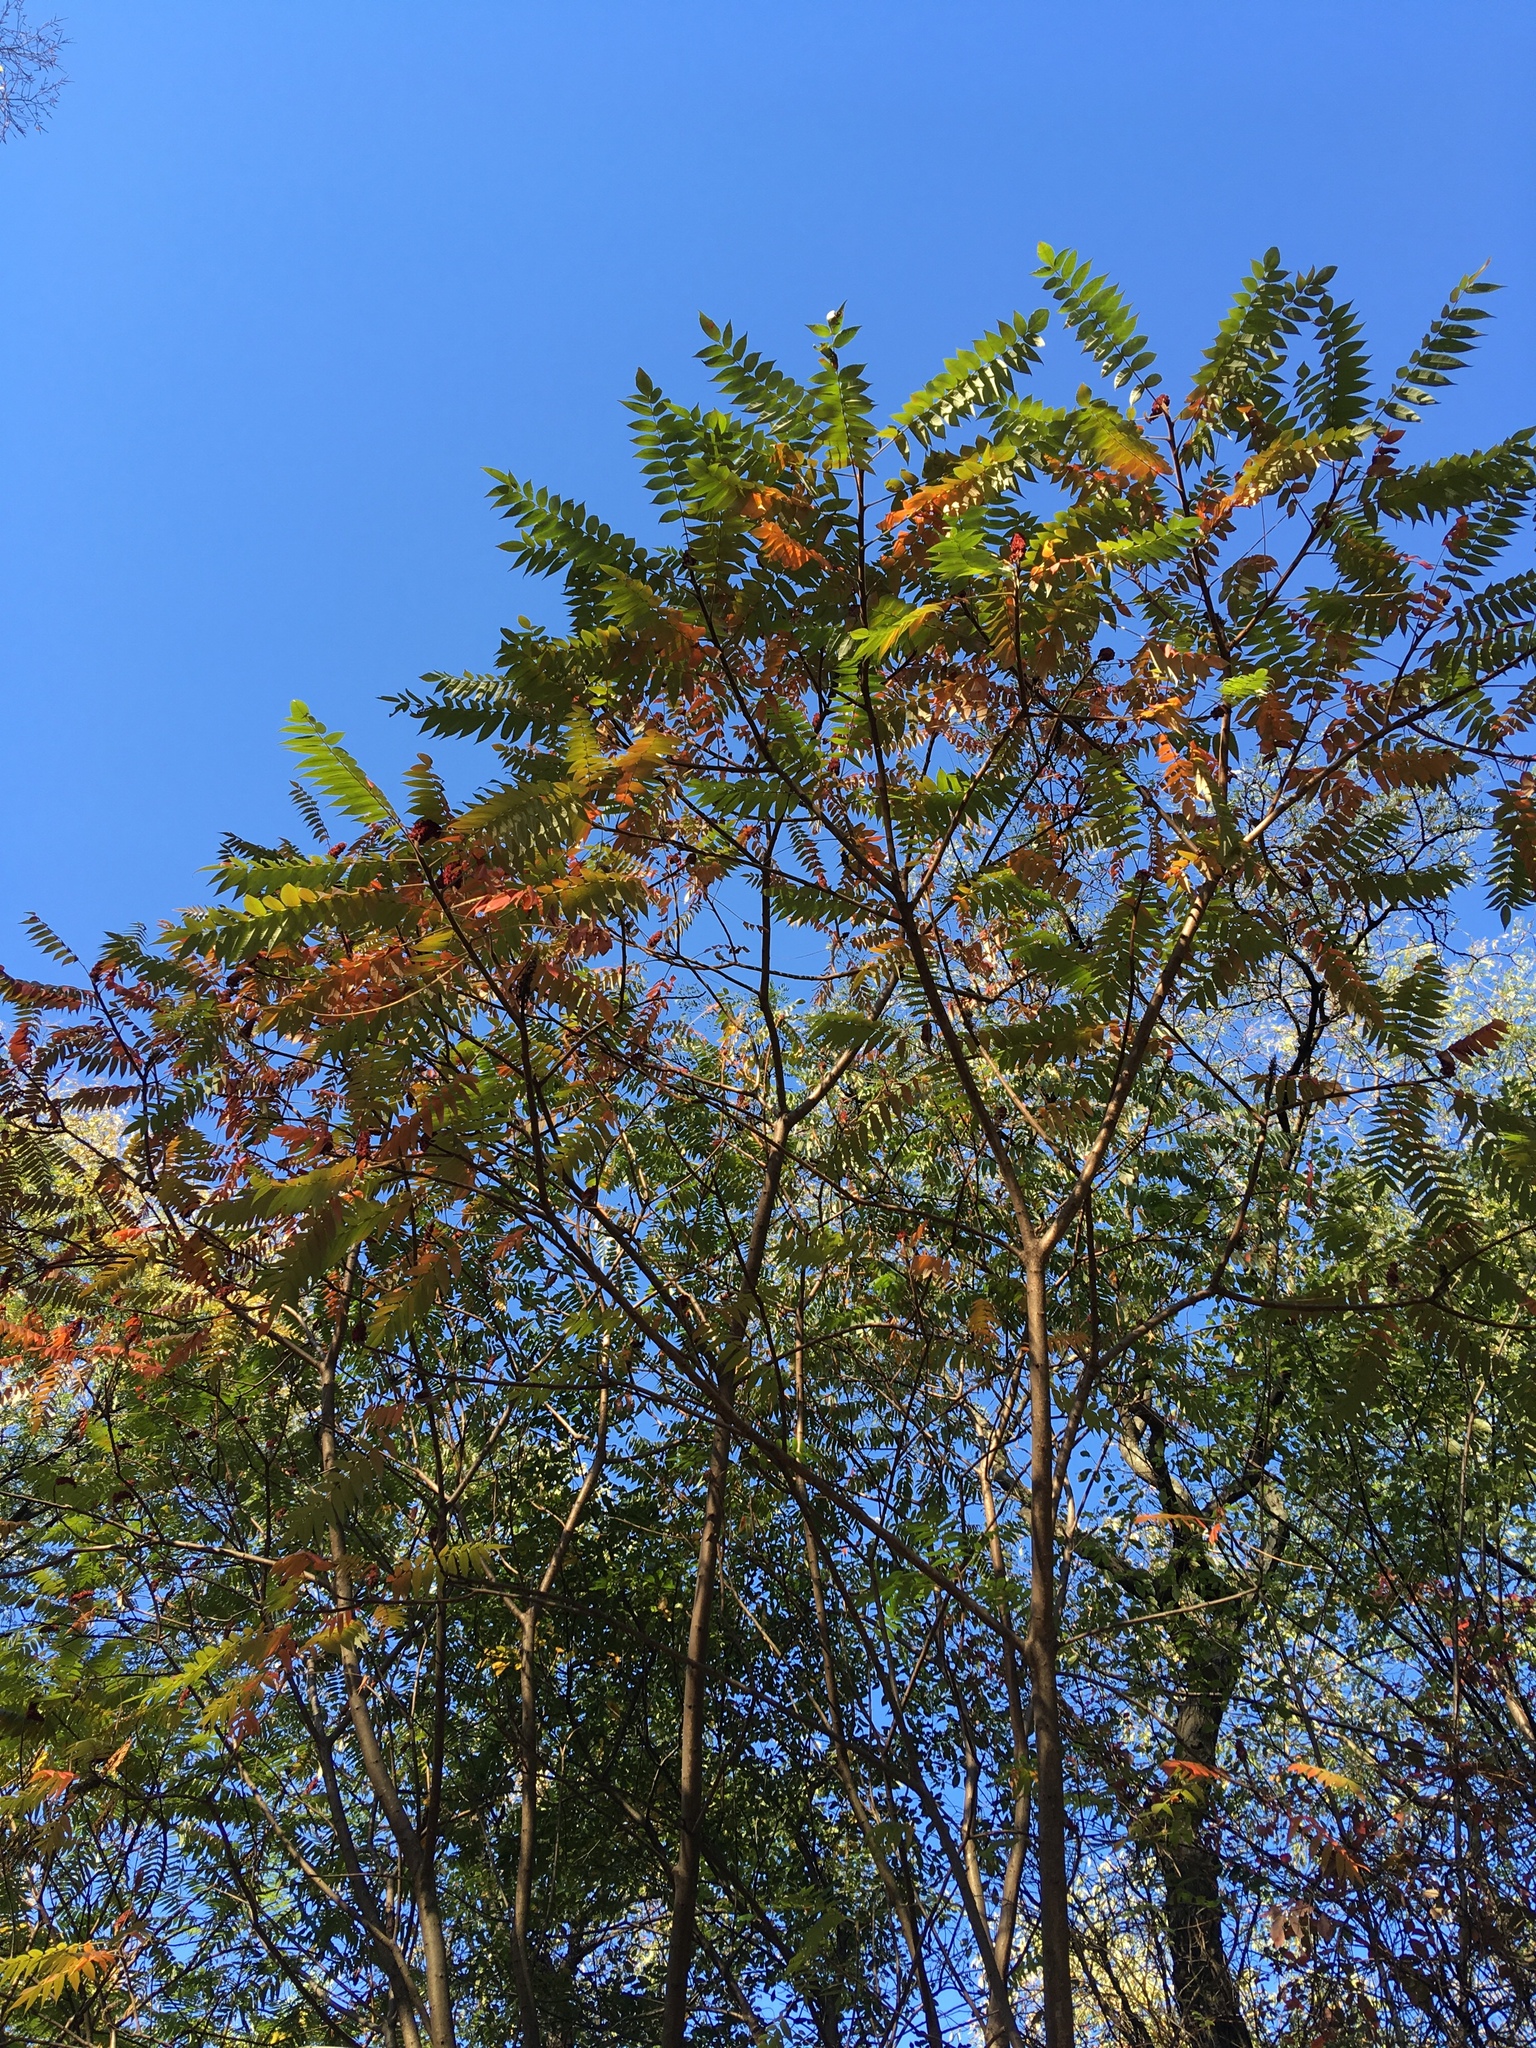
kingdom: Plantae
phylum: Tracheophyta
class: Magnoliopsida
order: Sapindales
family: Anacardiaceae
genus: Rhus
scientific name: Rhus typhina
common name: Staghorn sumac
